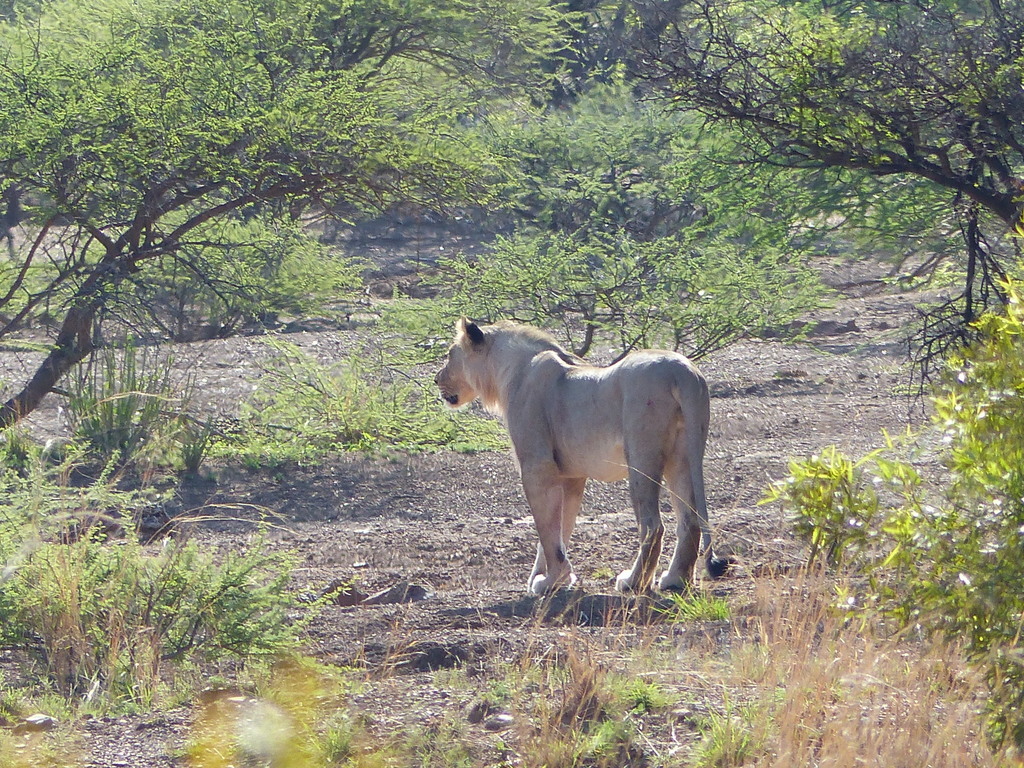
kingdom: Animalia
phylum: Chordata
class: Mammalia
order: Carnivora
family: Felidae
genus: Panthera
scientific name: Panthera leo
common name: Lion
